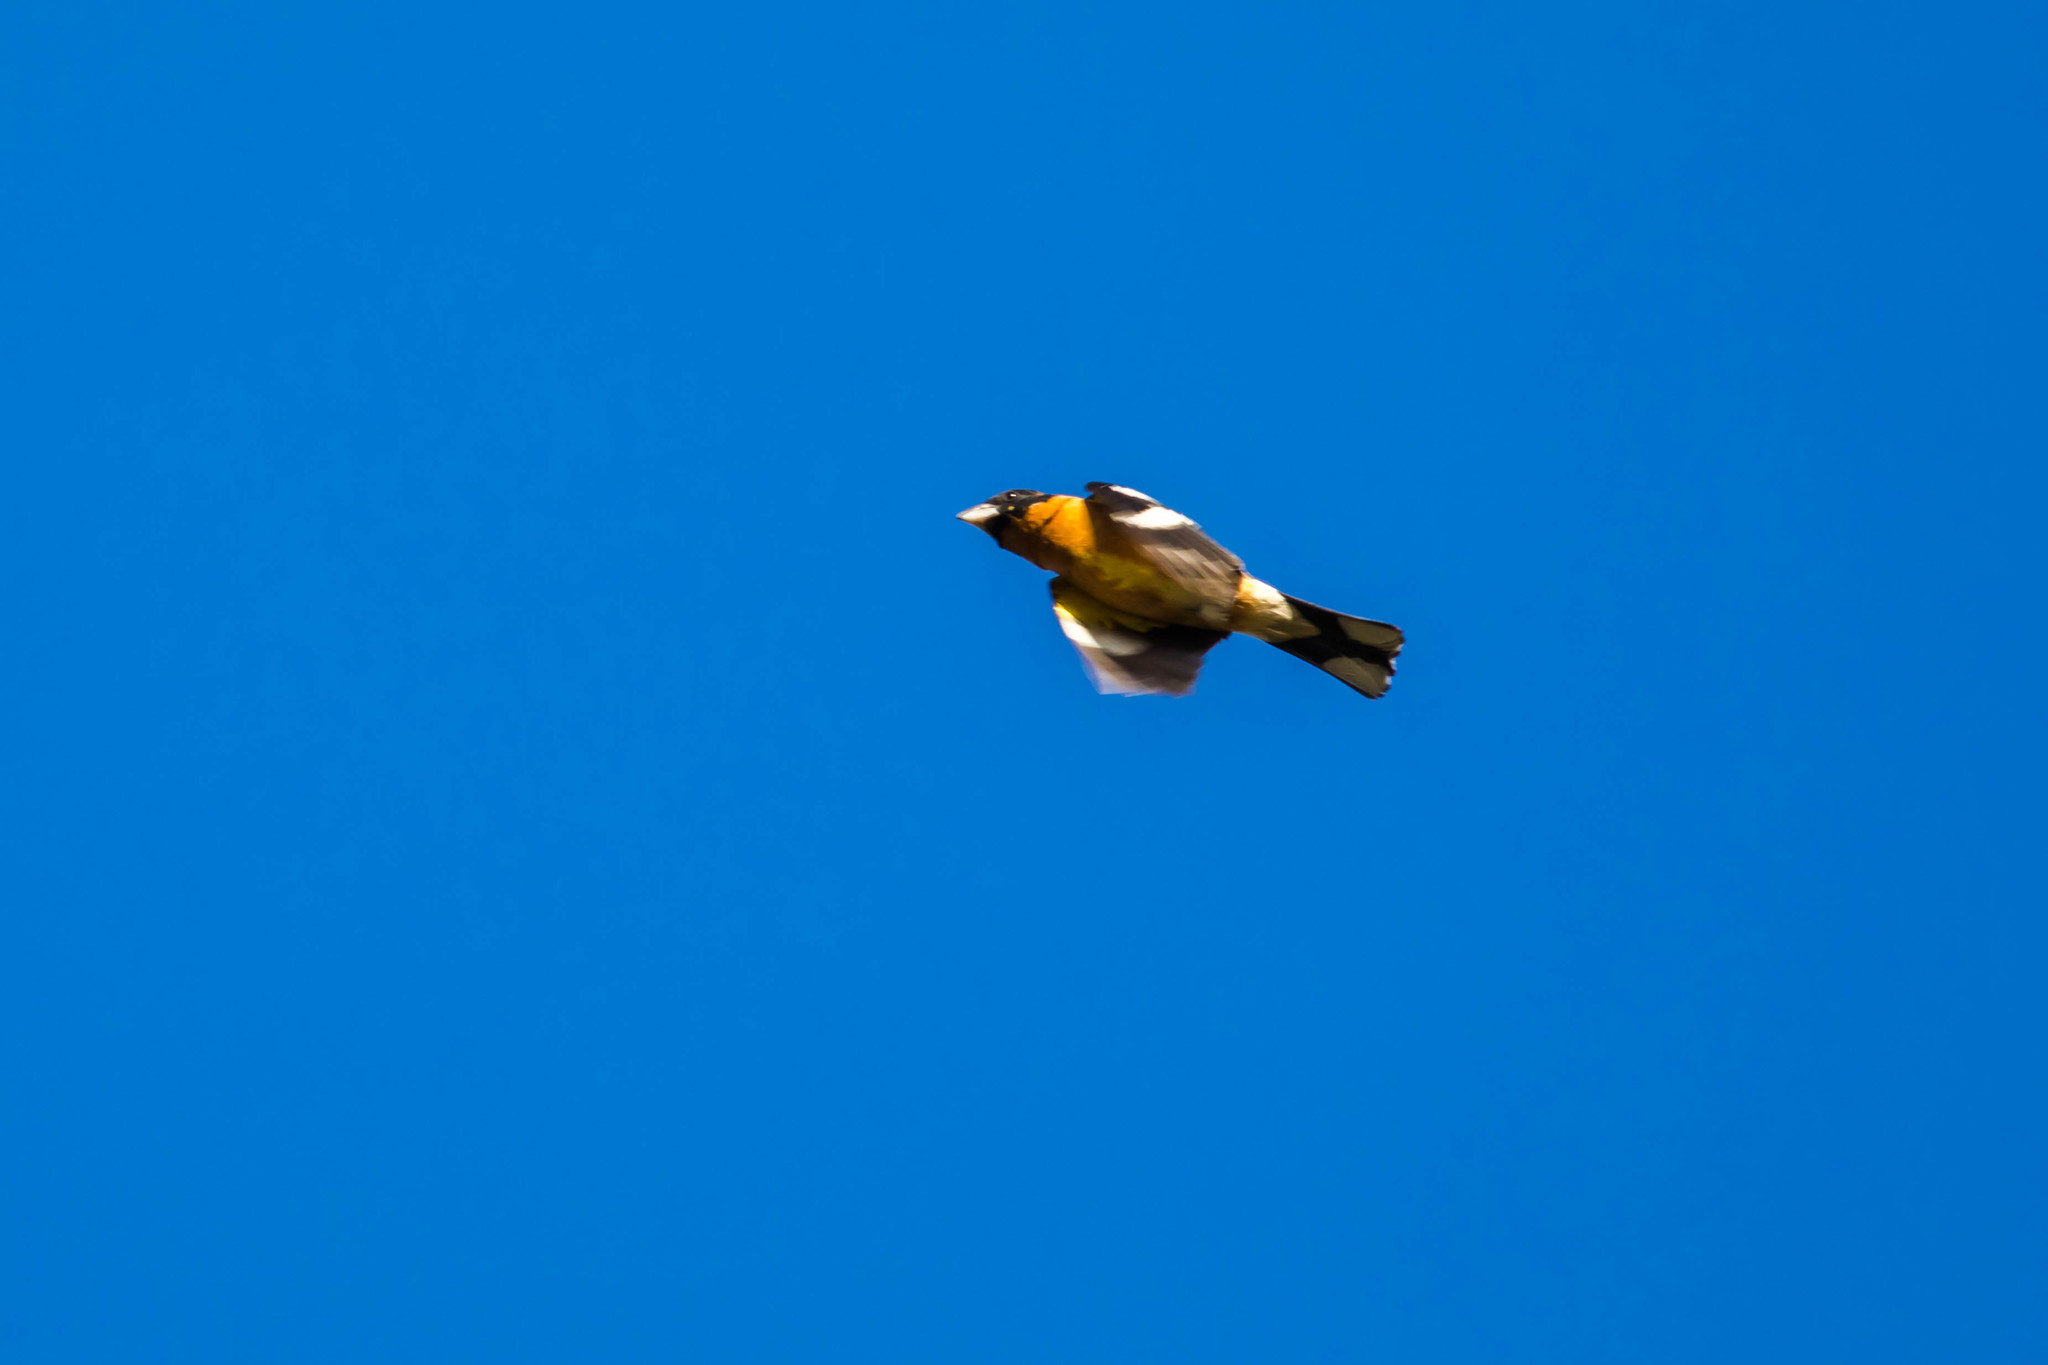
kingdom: Animalia
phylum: Chordata
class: Aves
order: Passeriformes
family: Cardinalidae
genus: Pheucticus
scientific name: Pheucticus melanocephalus
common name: Black-headed grosbeak
